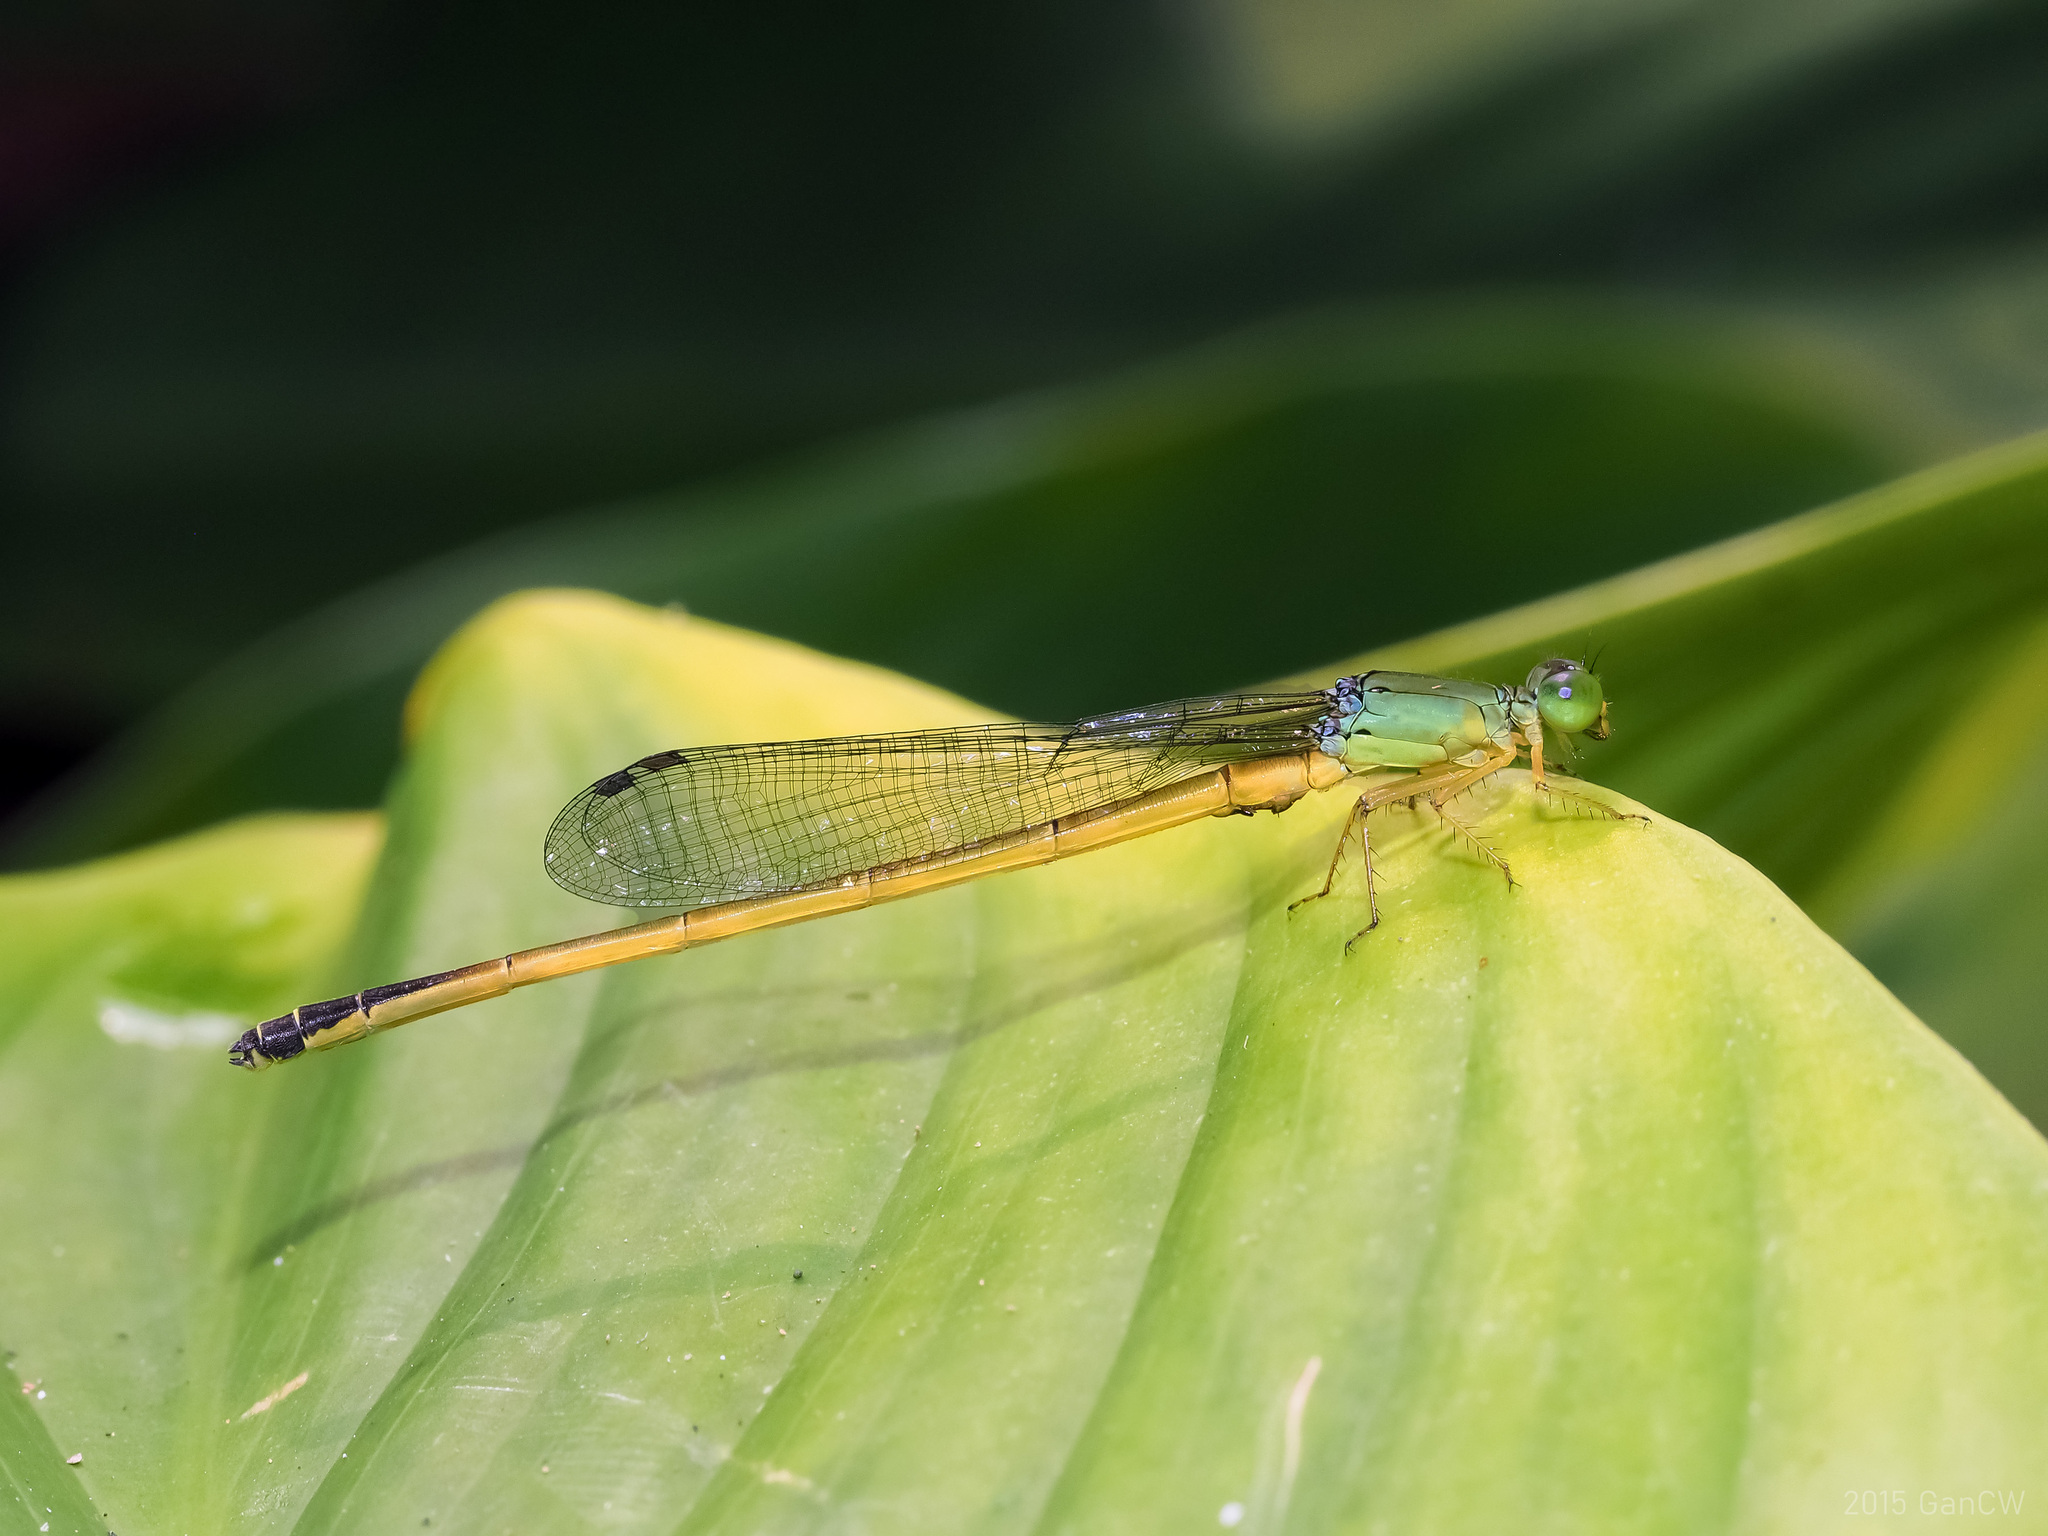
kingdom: Animalia
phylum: Arthropoda
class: Insecta
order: Odonata
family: Coenagrionidae
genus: Ceriagrion
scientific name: Ceriagrion fallax
